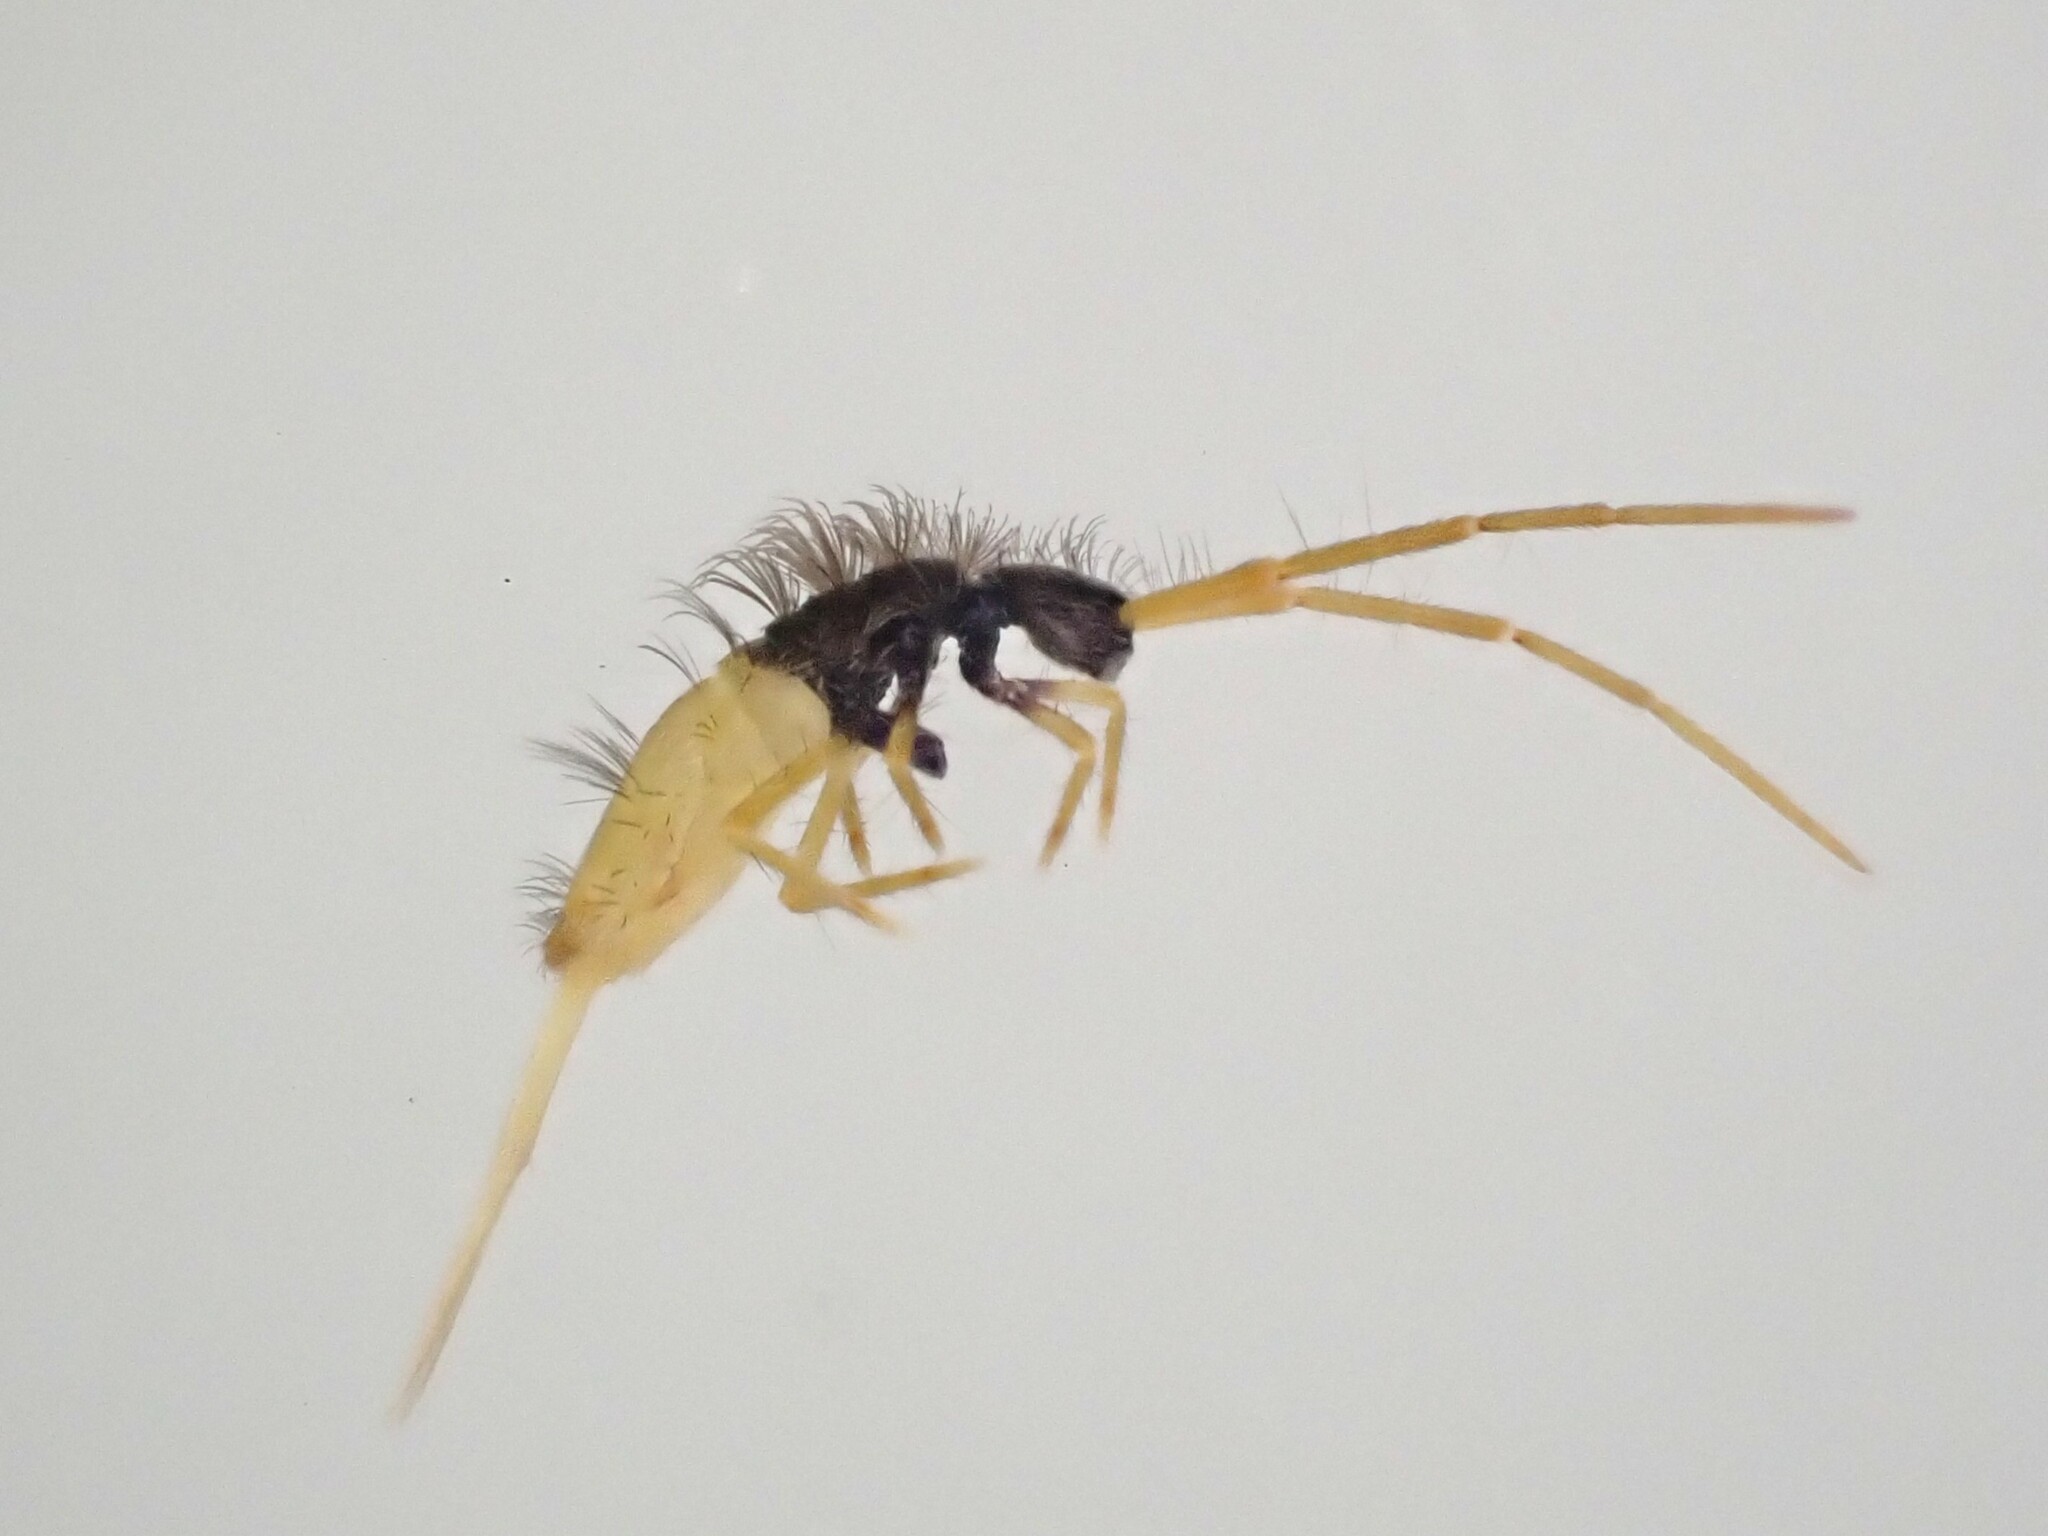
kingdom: Animalia
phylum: Arthropoda
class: Collembola
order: Entomobryomorpha
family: Paronellidae
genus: Paronana
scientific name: Paronana karoriensis
